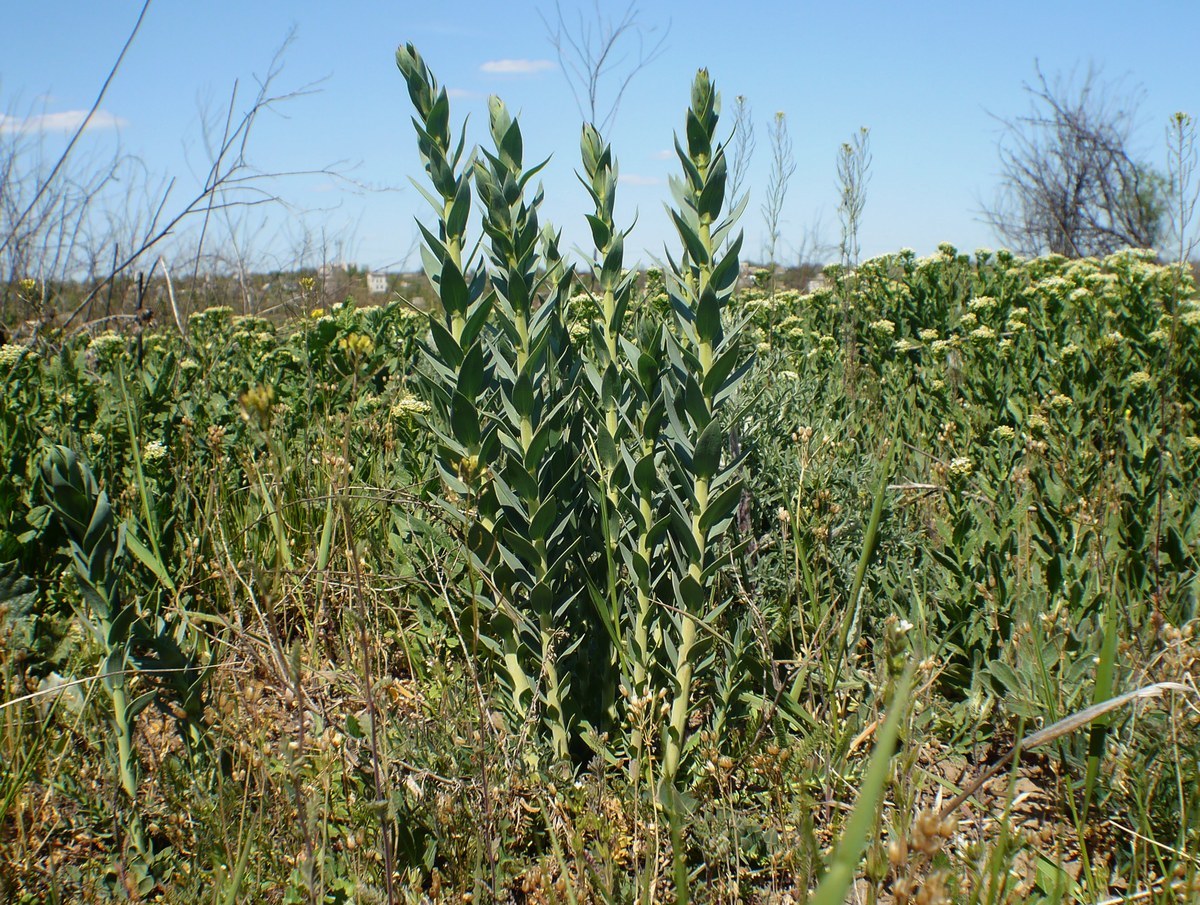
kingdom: Plantae
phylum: Tracheophyta
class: Magnoliopsida
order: Lamiales
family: Plantaginaceae
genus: Linaria
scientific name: Linaria genistifolia
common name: Broomleaf toadflax
